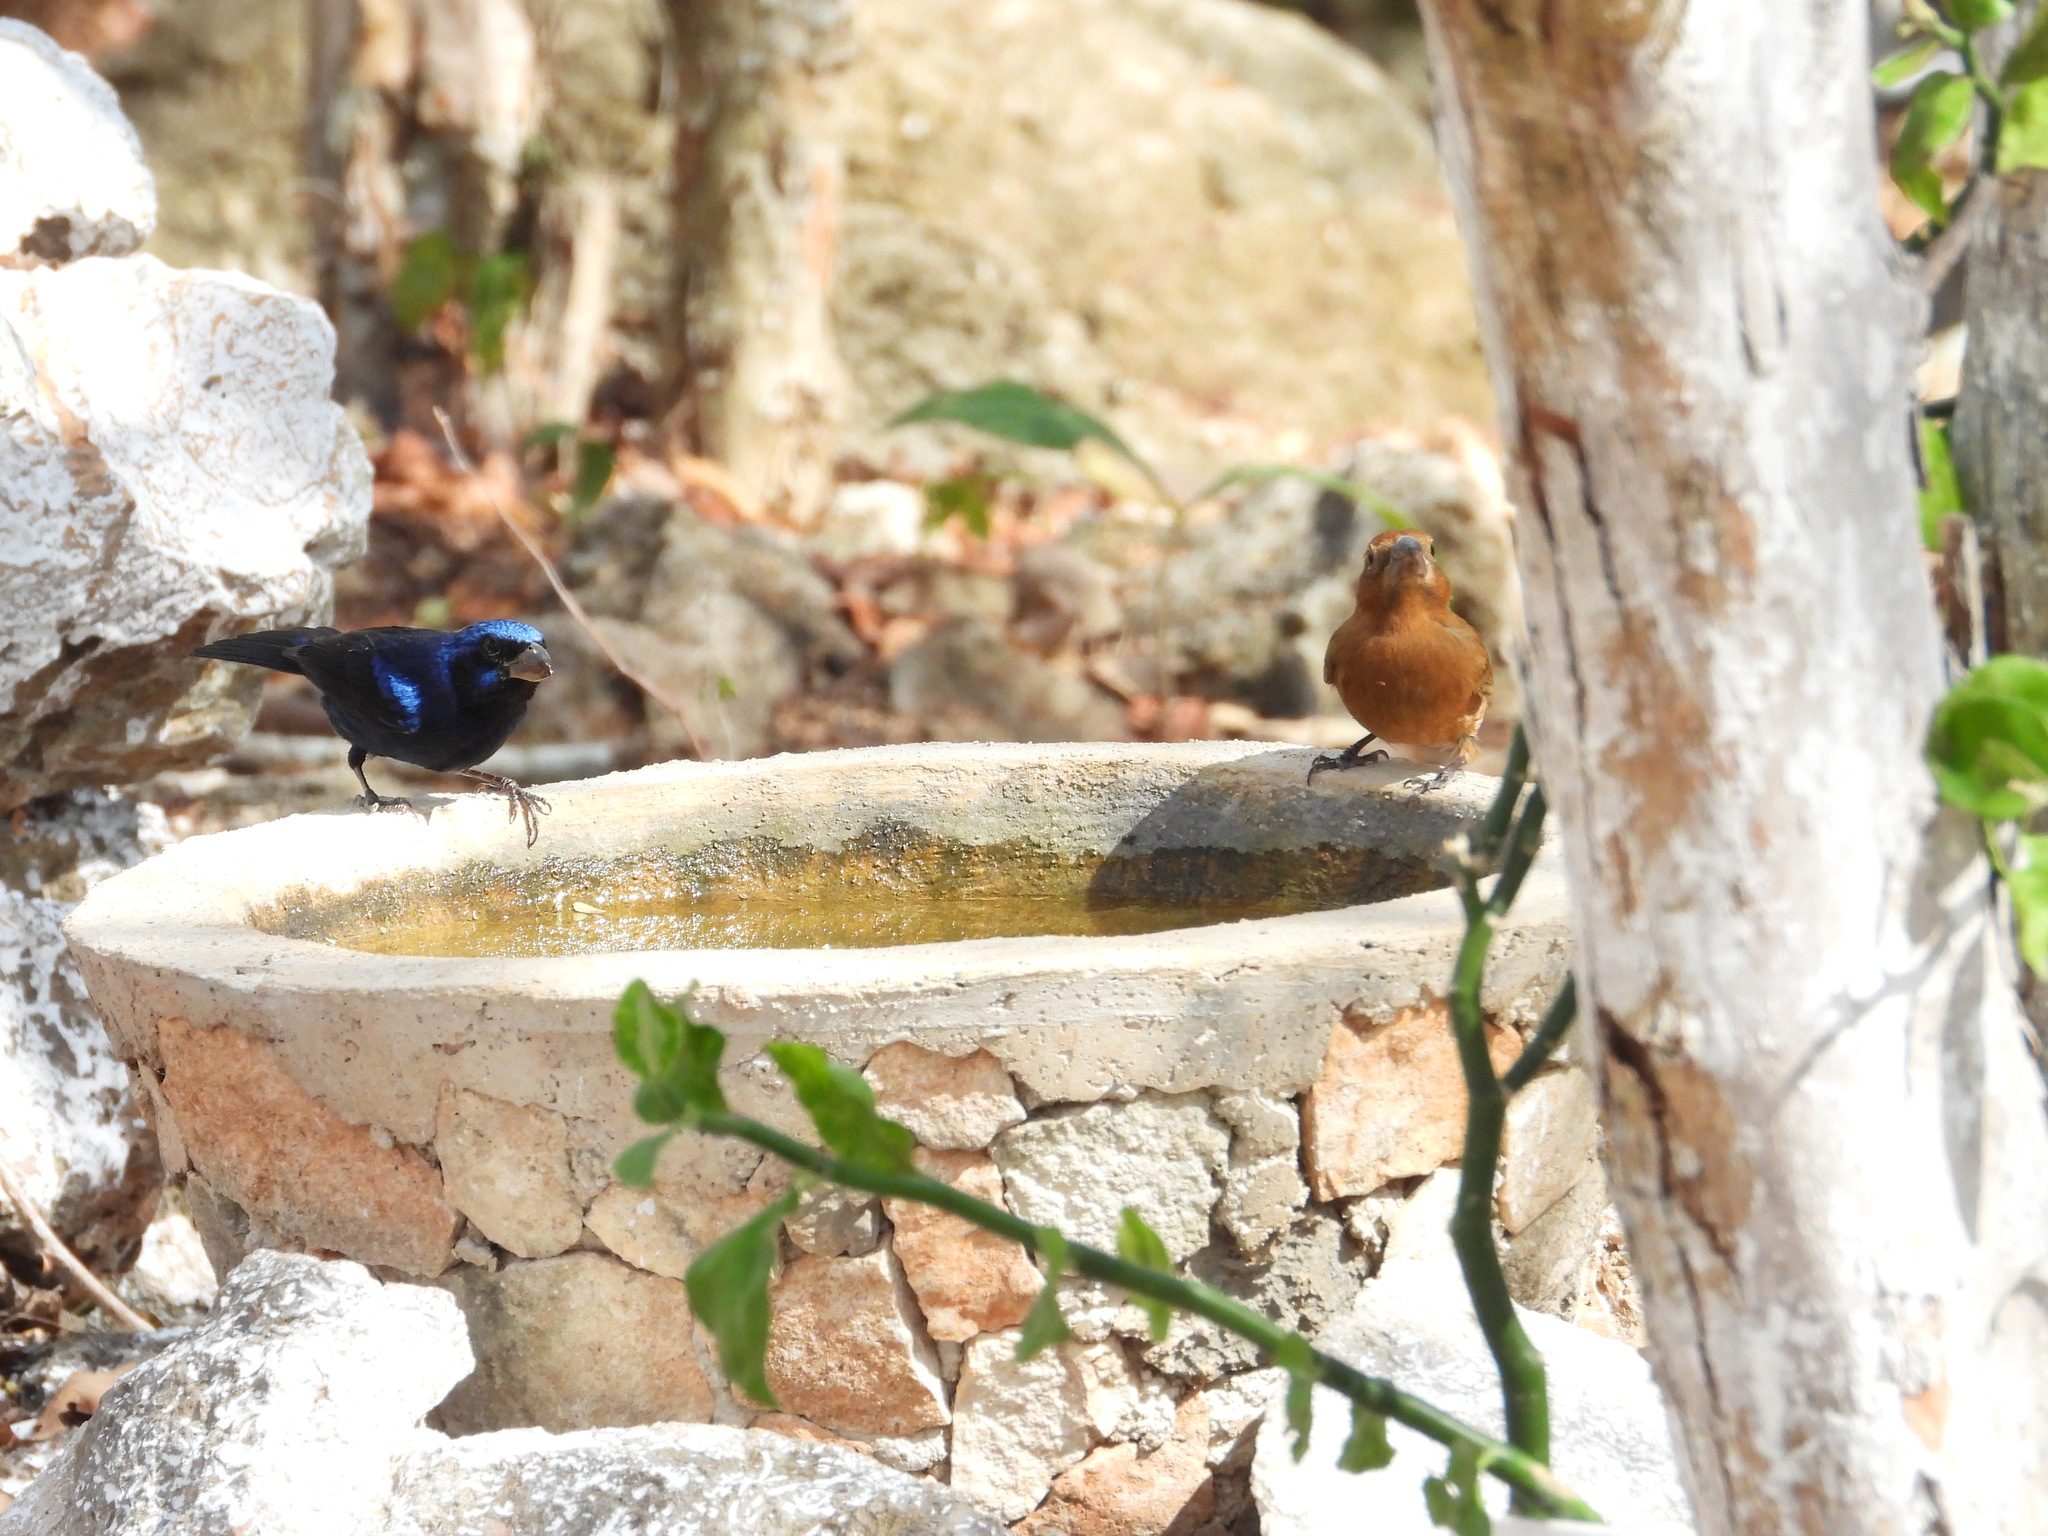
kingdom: Animalia
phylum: Chordata
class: Aves
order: Passeriformes
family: Cardinalidae
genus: Cyanocompsa
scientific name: Cyanocompsa parellina
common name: Blue bunting
